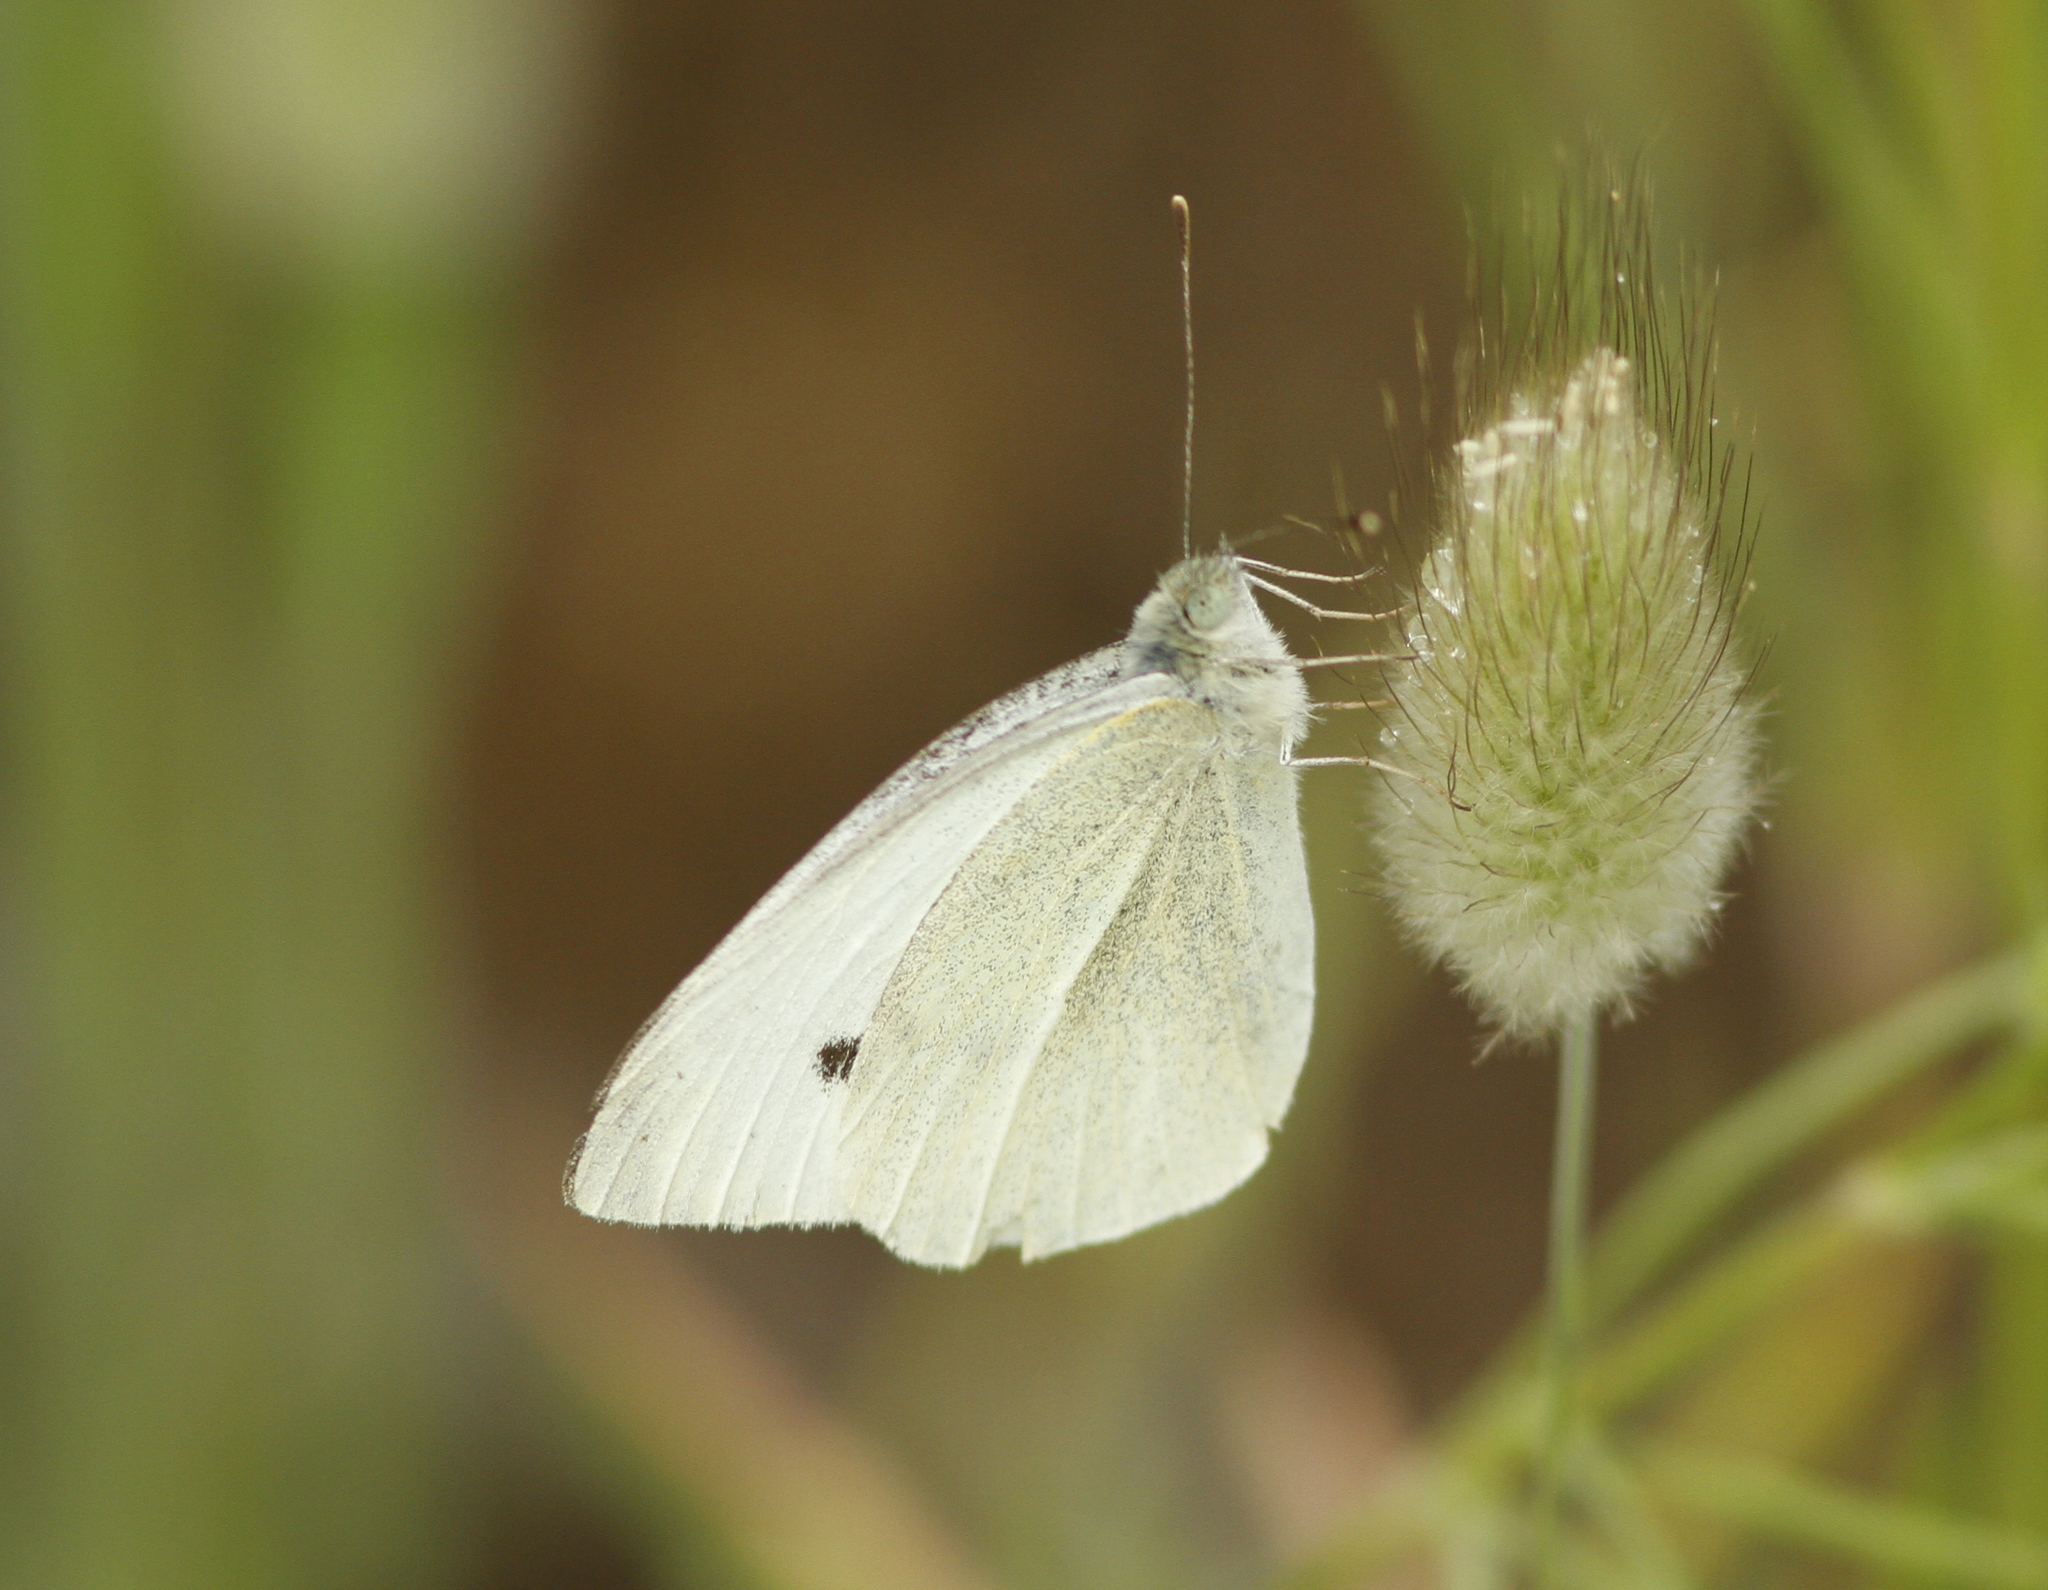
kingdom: Animalia
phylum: Arthropoda
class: Insecta
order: Lepidoptera
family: Pieridae
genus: Pieris
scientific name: Pieris rapae
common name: Small white
